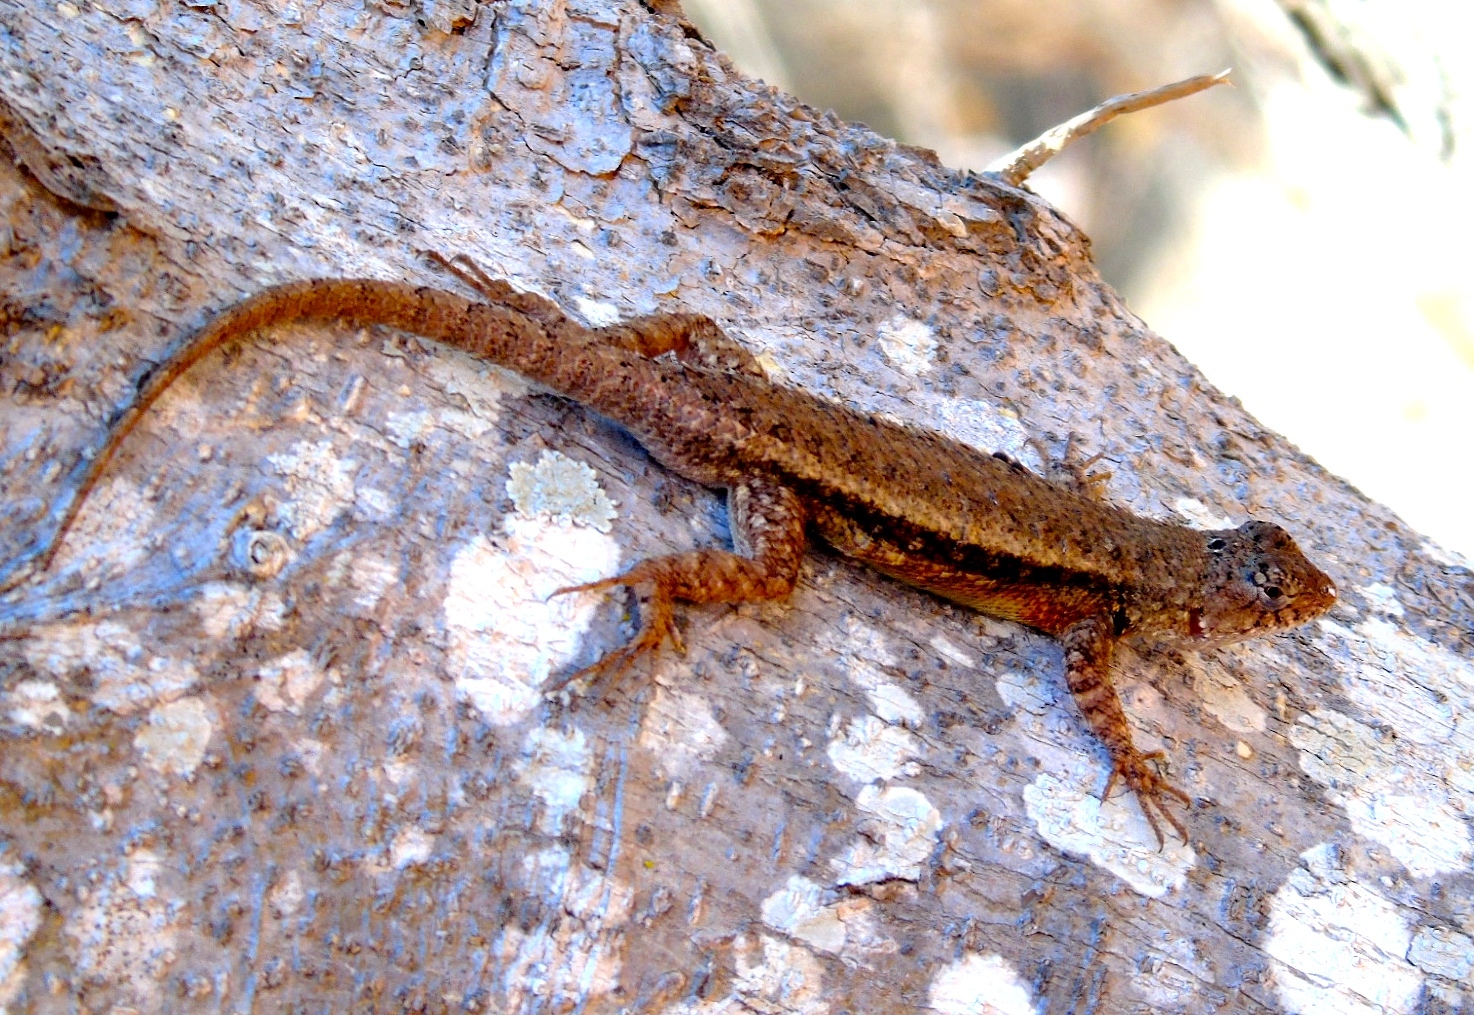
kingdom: Animalia
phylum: Chordata
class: Squamata
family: Phrynosomatidae
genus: Sceloporus
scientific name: Sceloporus nelsoni
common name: Nelson's spiny lizard
